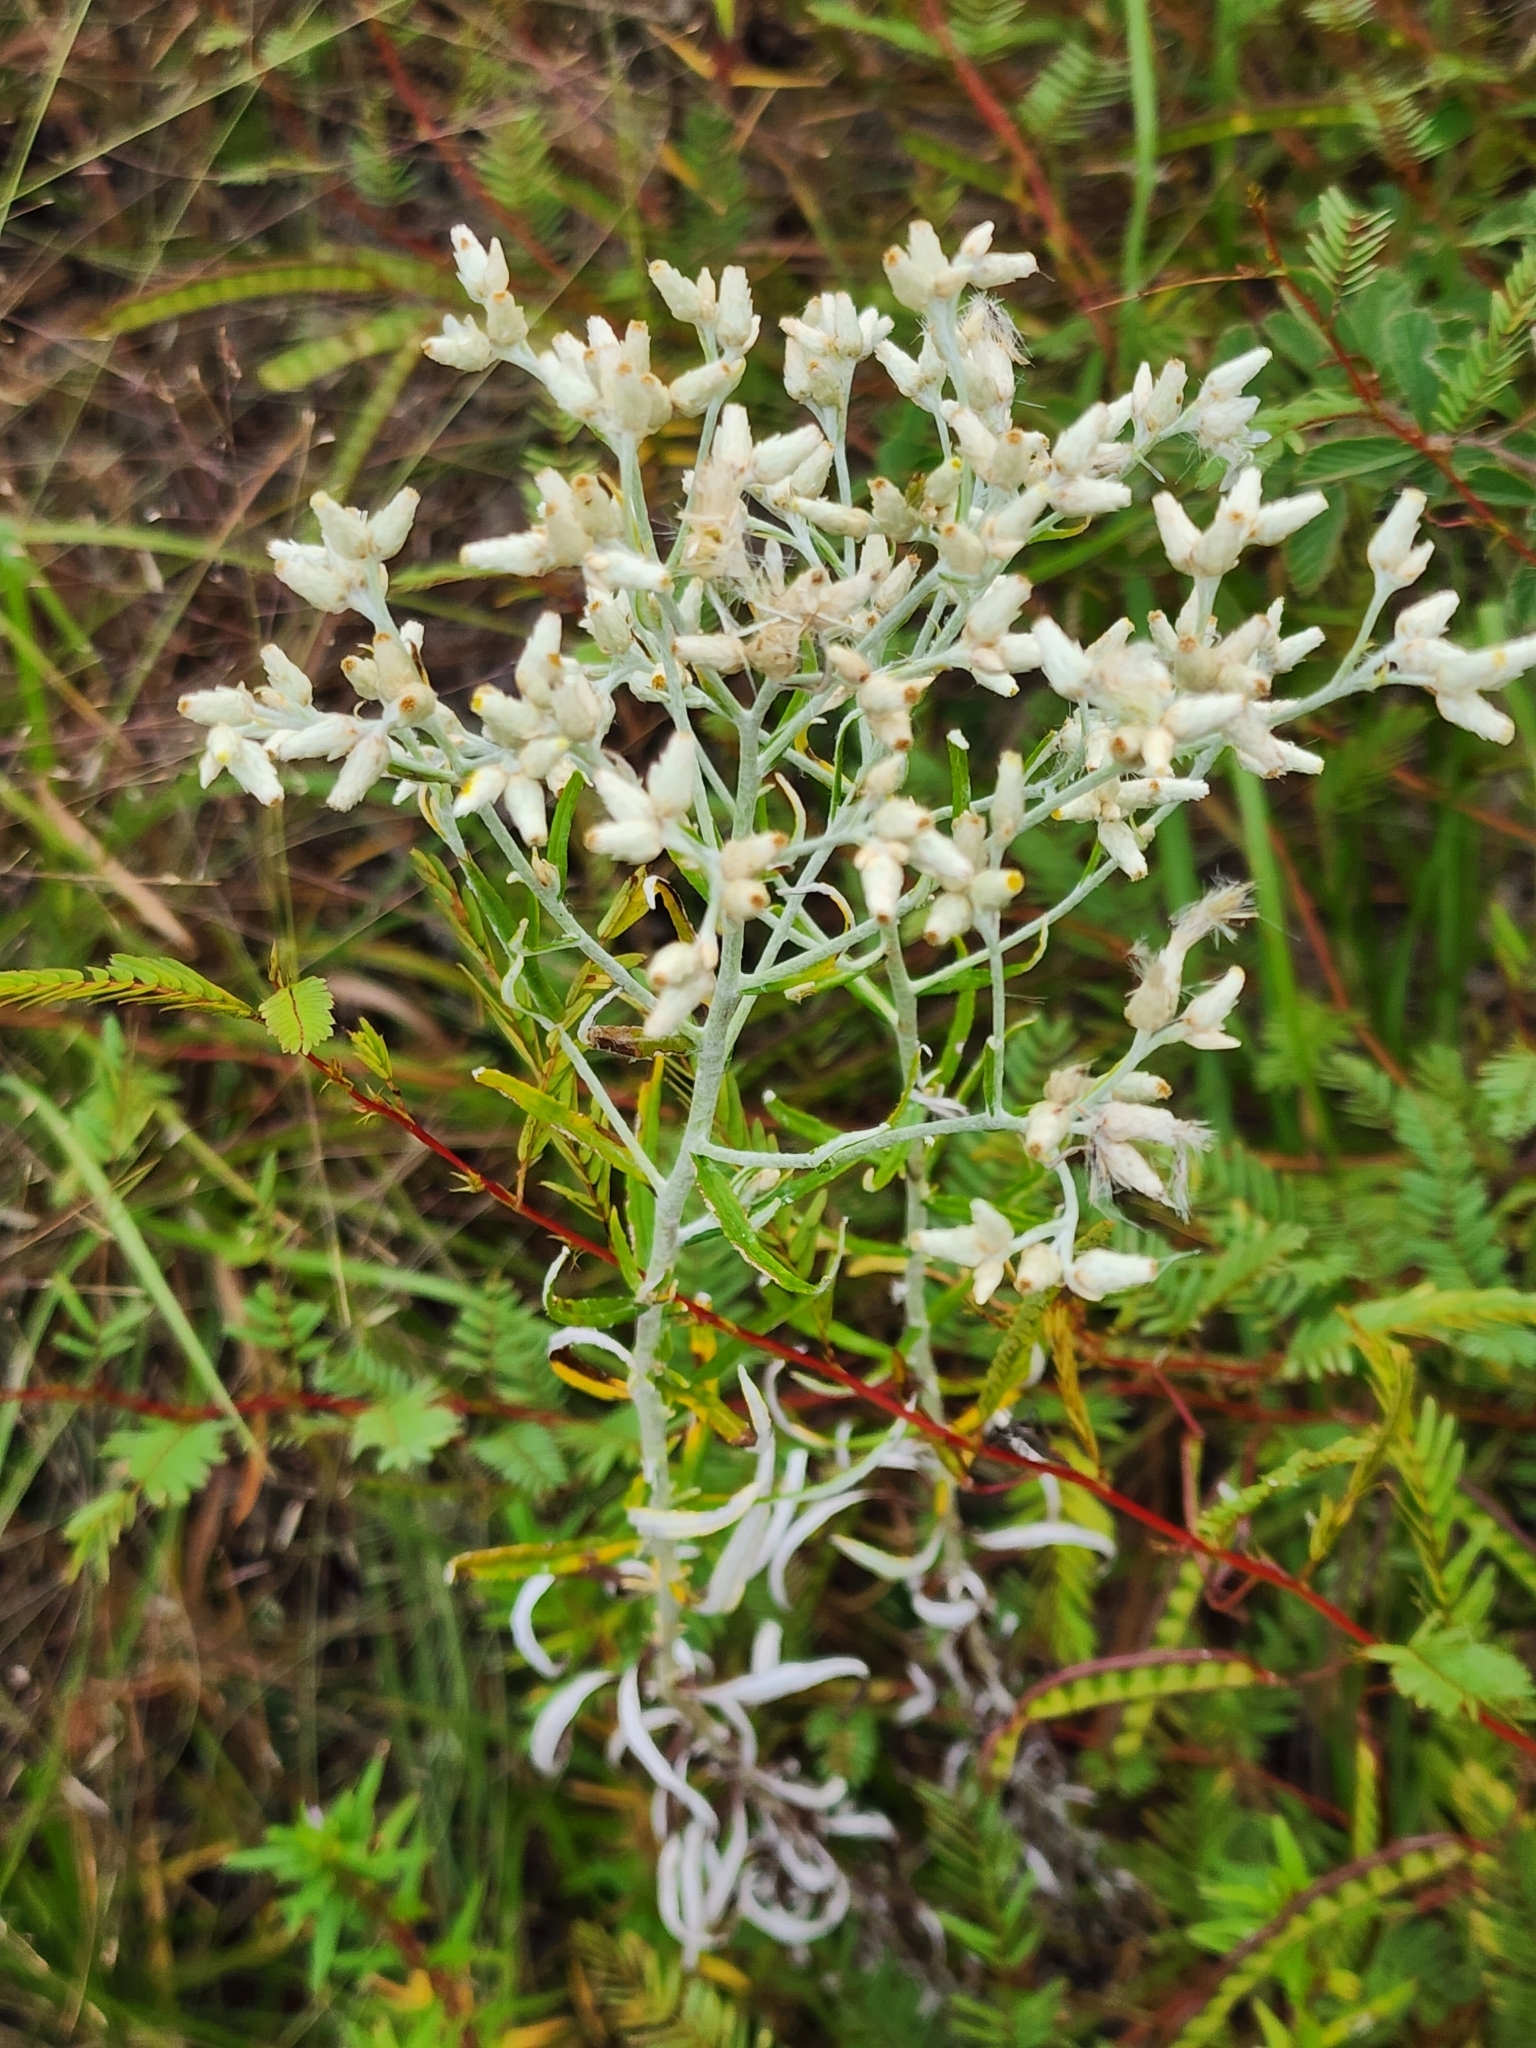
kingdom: Plantae
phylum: Tracheophyta
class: Magnoliopsida
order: Asterales
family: Asteraceae
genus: Pseudognaphalium
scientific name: Pseudognaphalium obtusifolium
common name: Eastern rabbit-tobacco
